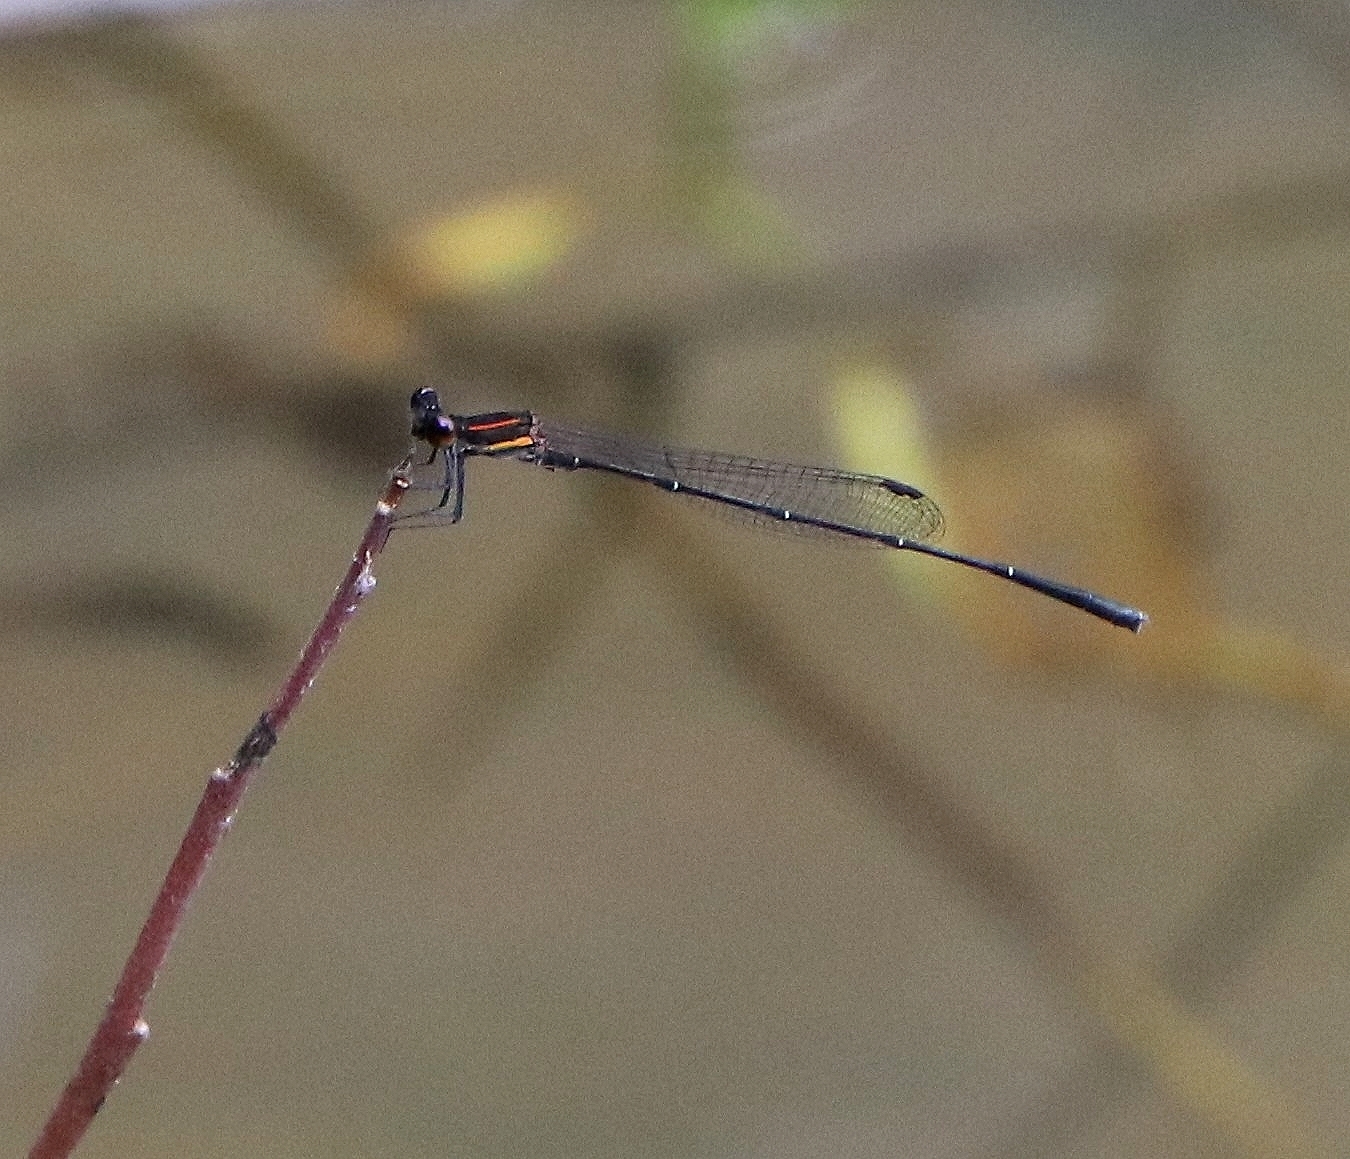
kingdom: Animalia
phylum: Arthropoda
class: Insecta
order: Odonata
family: Platycnemididae
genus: Prodasineura
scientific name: Prodasineura verticalis
